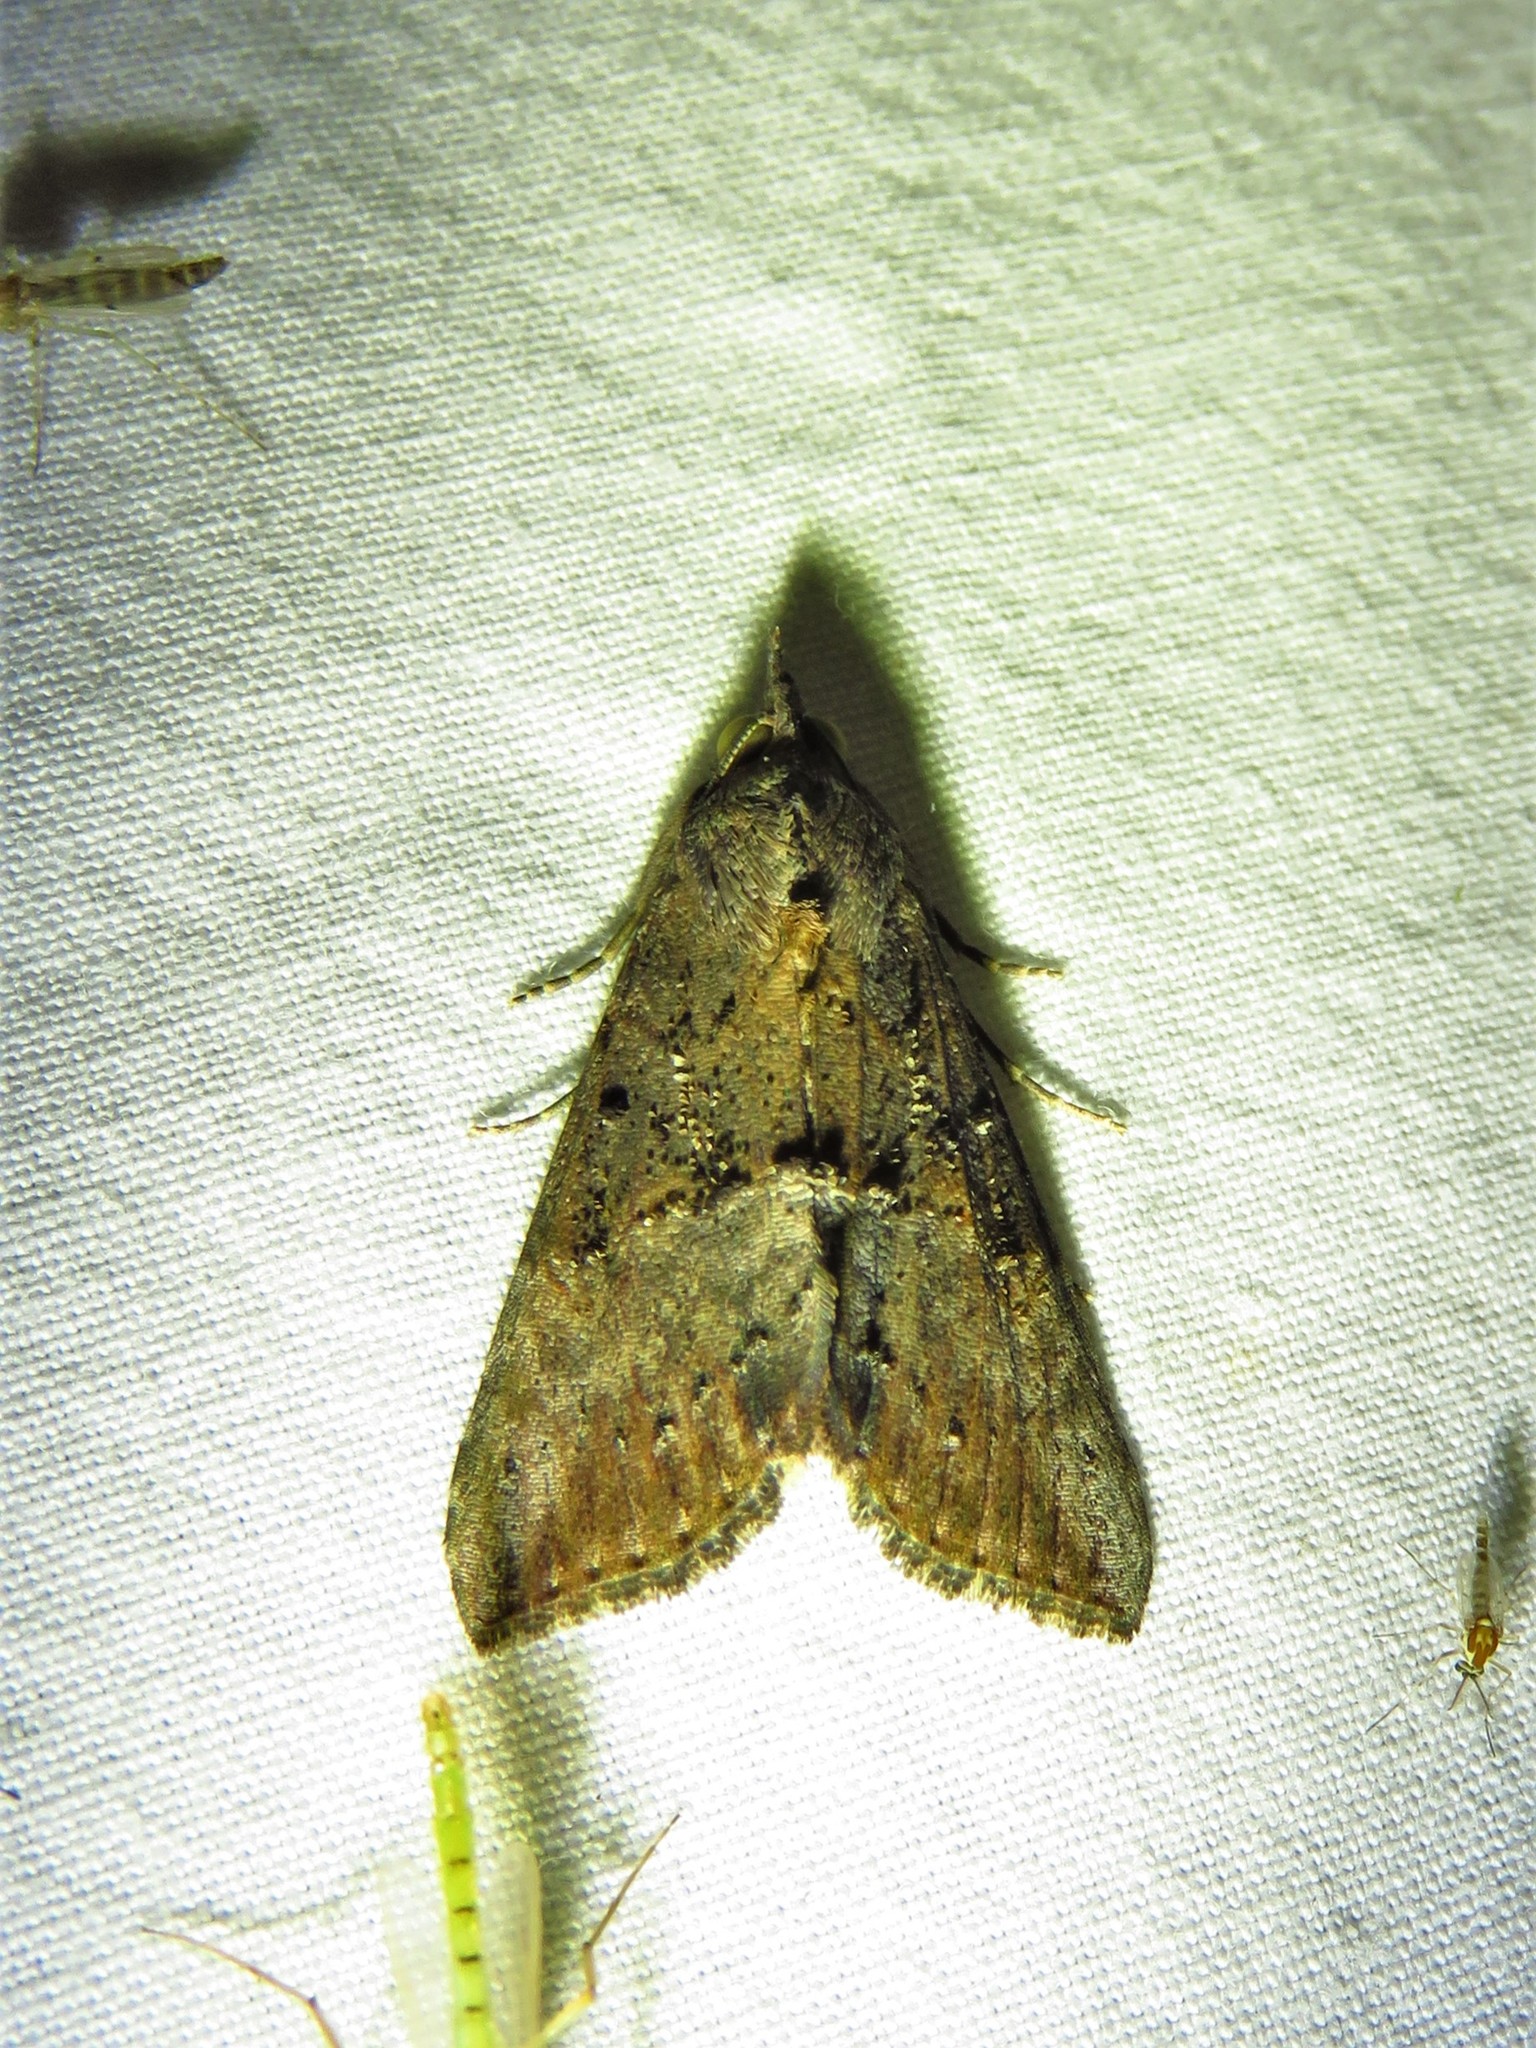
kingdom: Animalia
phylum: Arthropoda
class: Insecta
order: Lepidoptera
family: Erebidae
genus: Hypena
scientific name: Hypena scabra
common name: Green cloverworm
